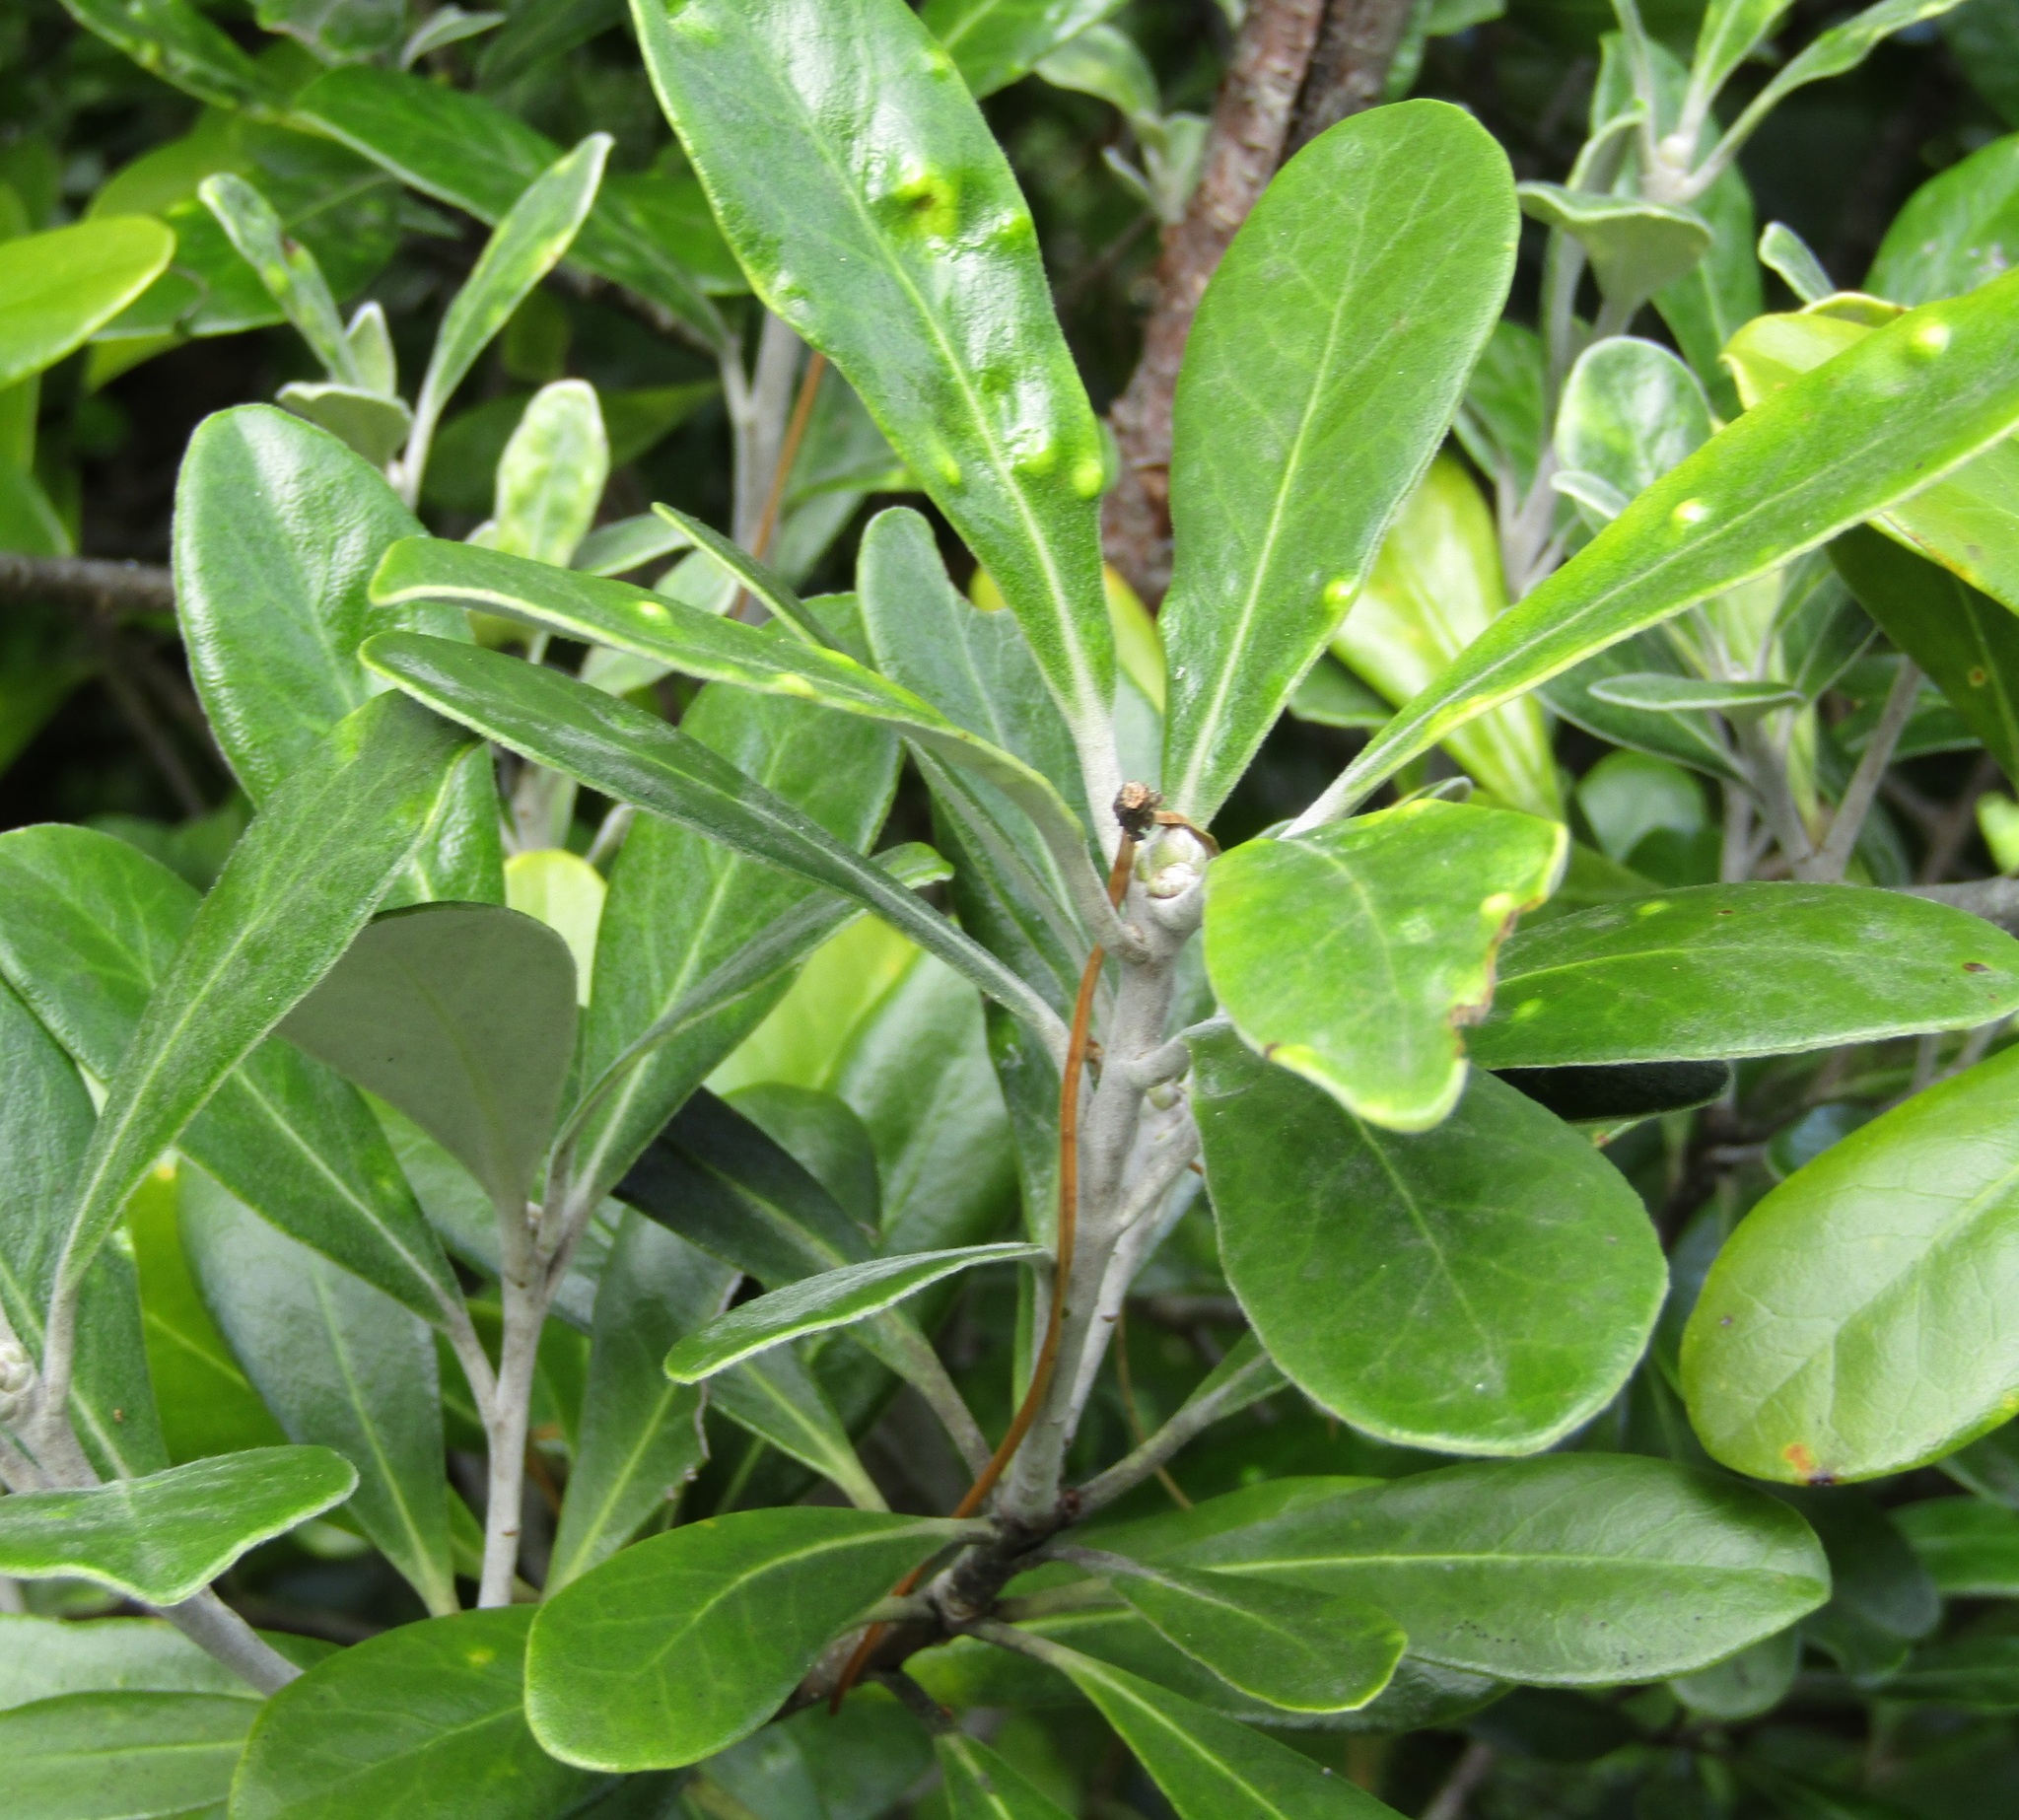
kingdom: Plantae
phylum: Tracheophyta
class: Magnoliopsida
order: Apiales
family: Pittosporaceae
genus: Pittosporum
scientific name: Pittosporum crassifolium
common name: Karo
